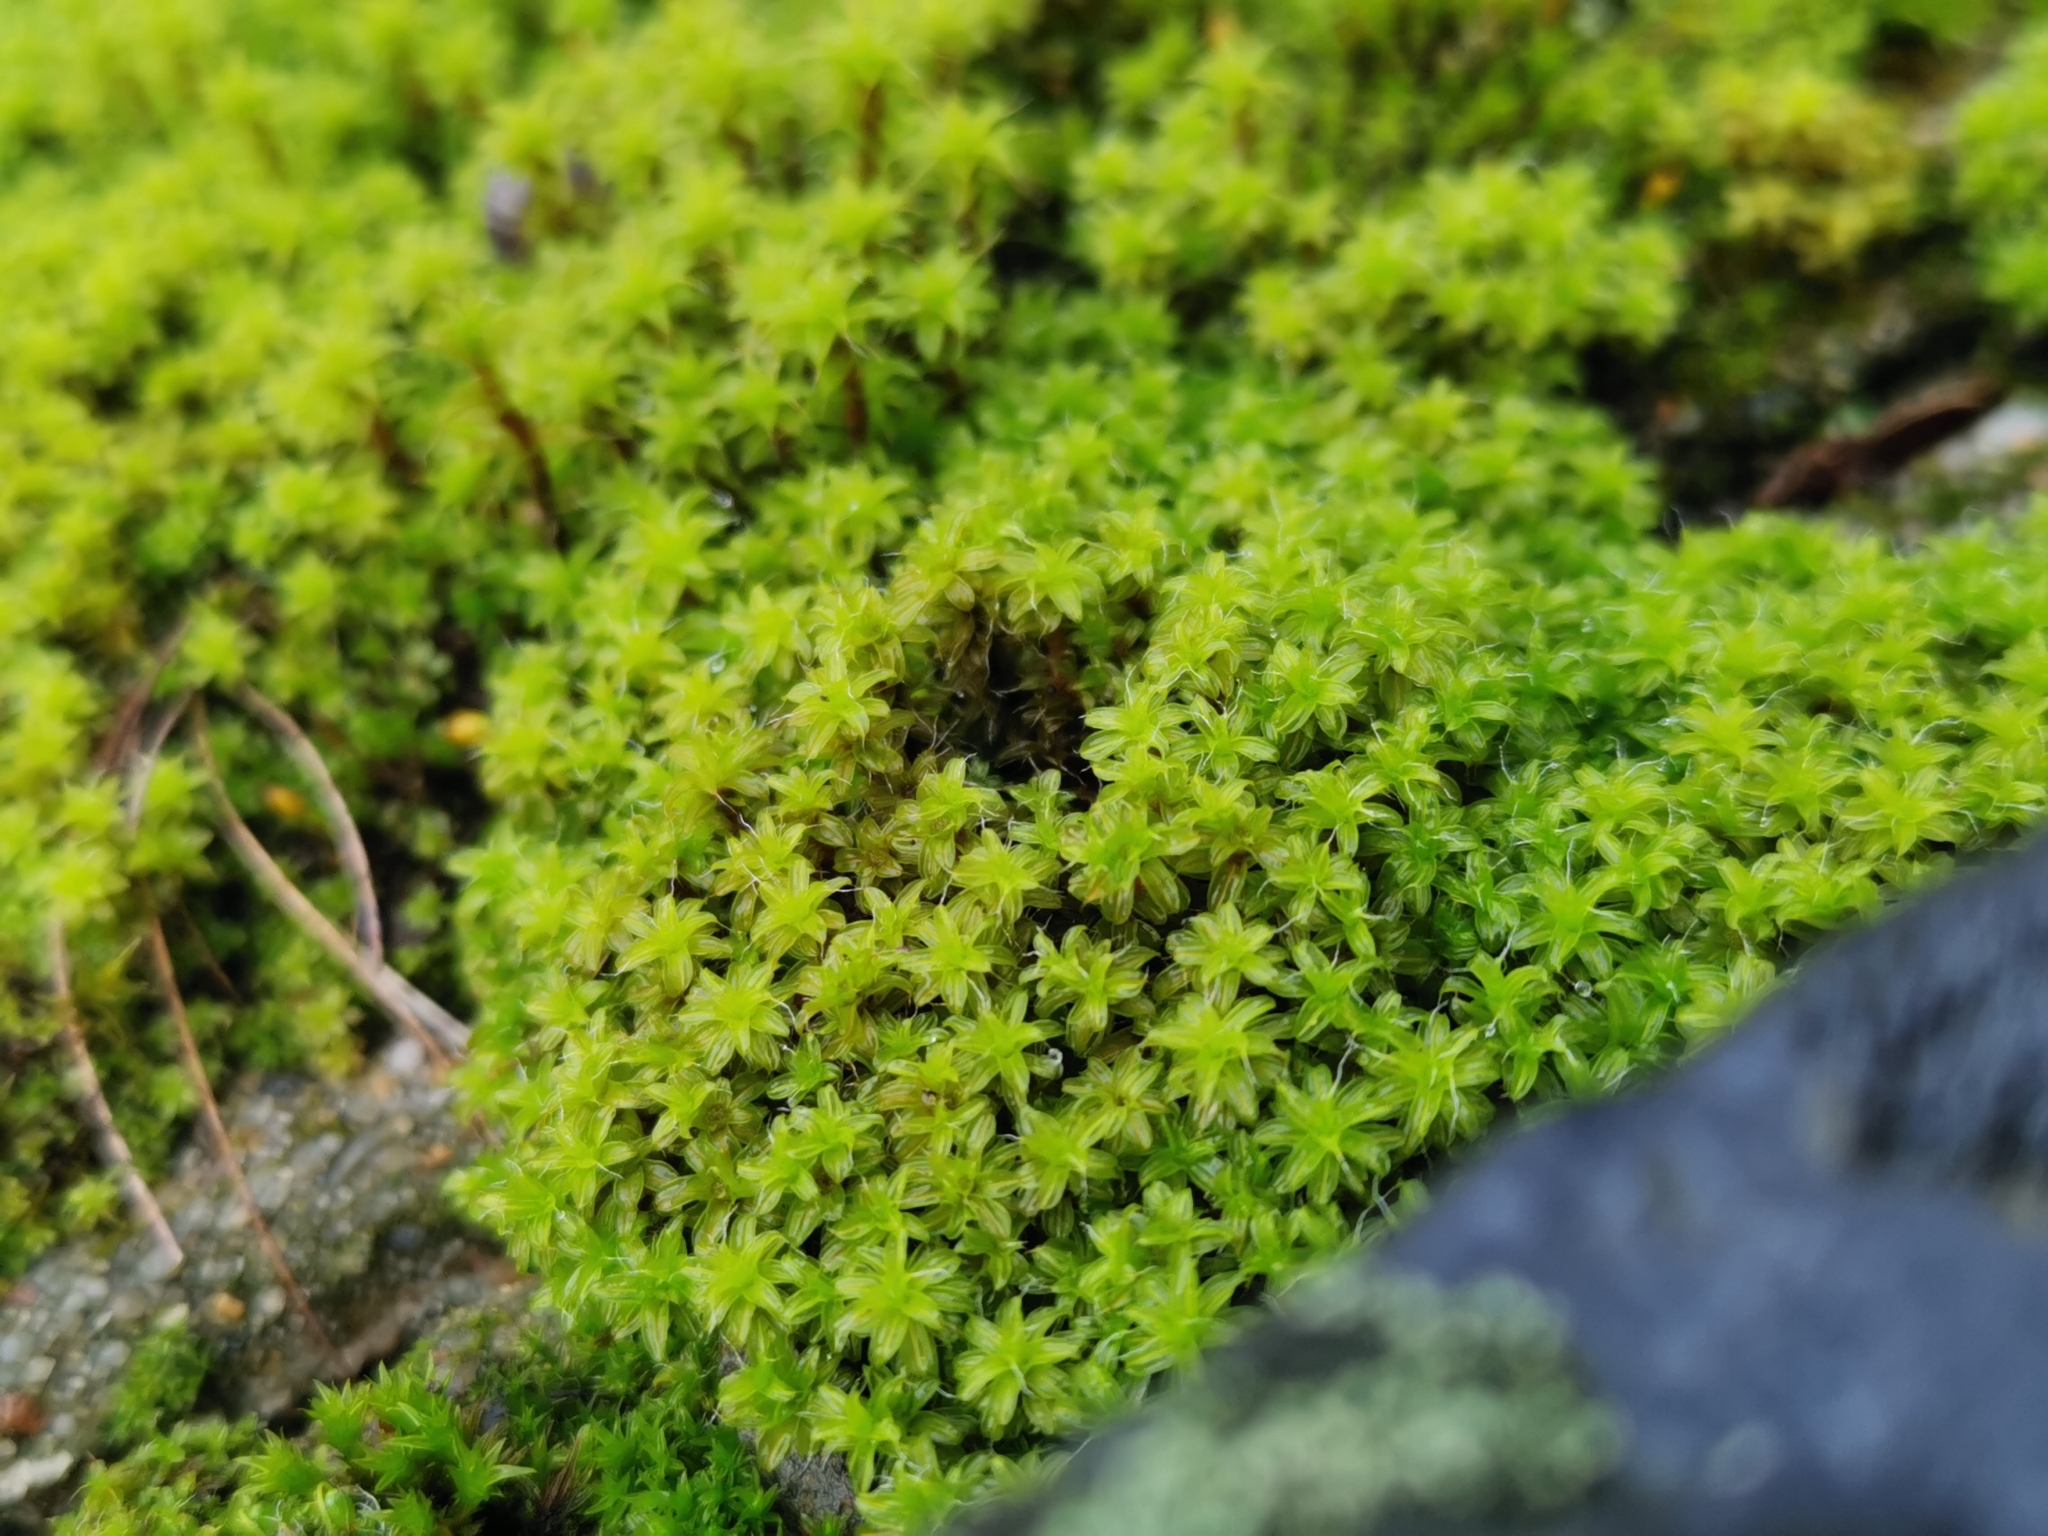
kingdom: Plantae
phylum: Bryophyta
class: Bryopsida
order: Pottiales
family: Pottiaceae
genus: Syntrichia
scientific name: Syntrichia ruralis
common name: Sidewalk screw moss
